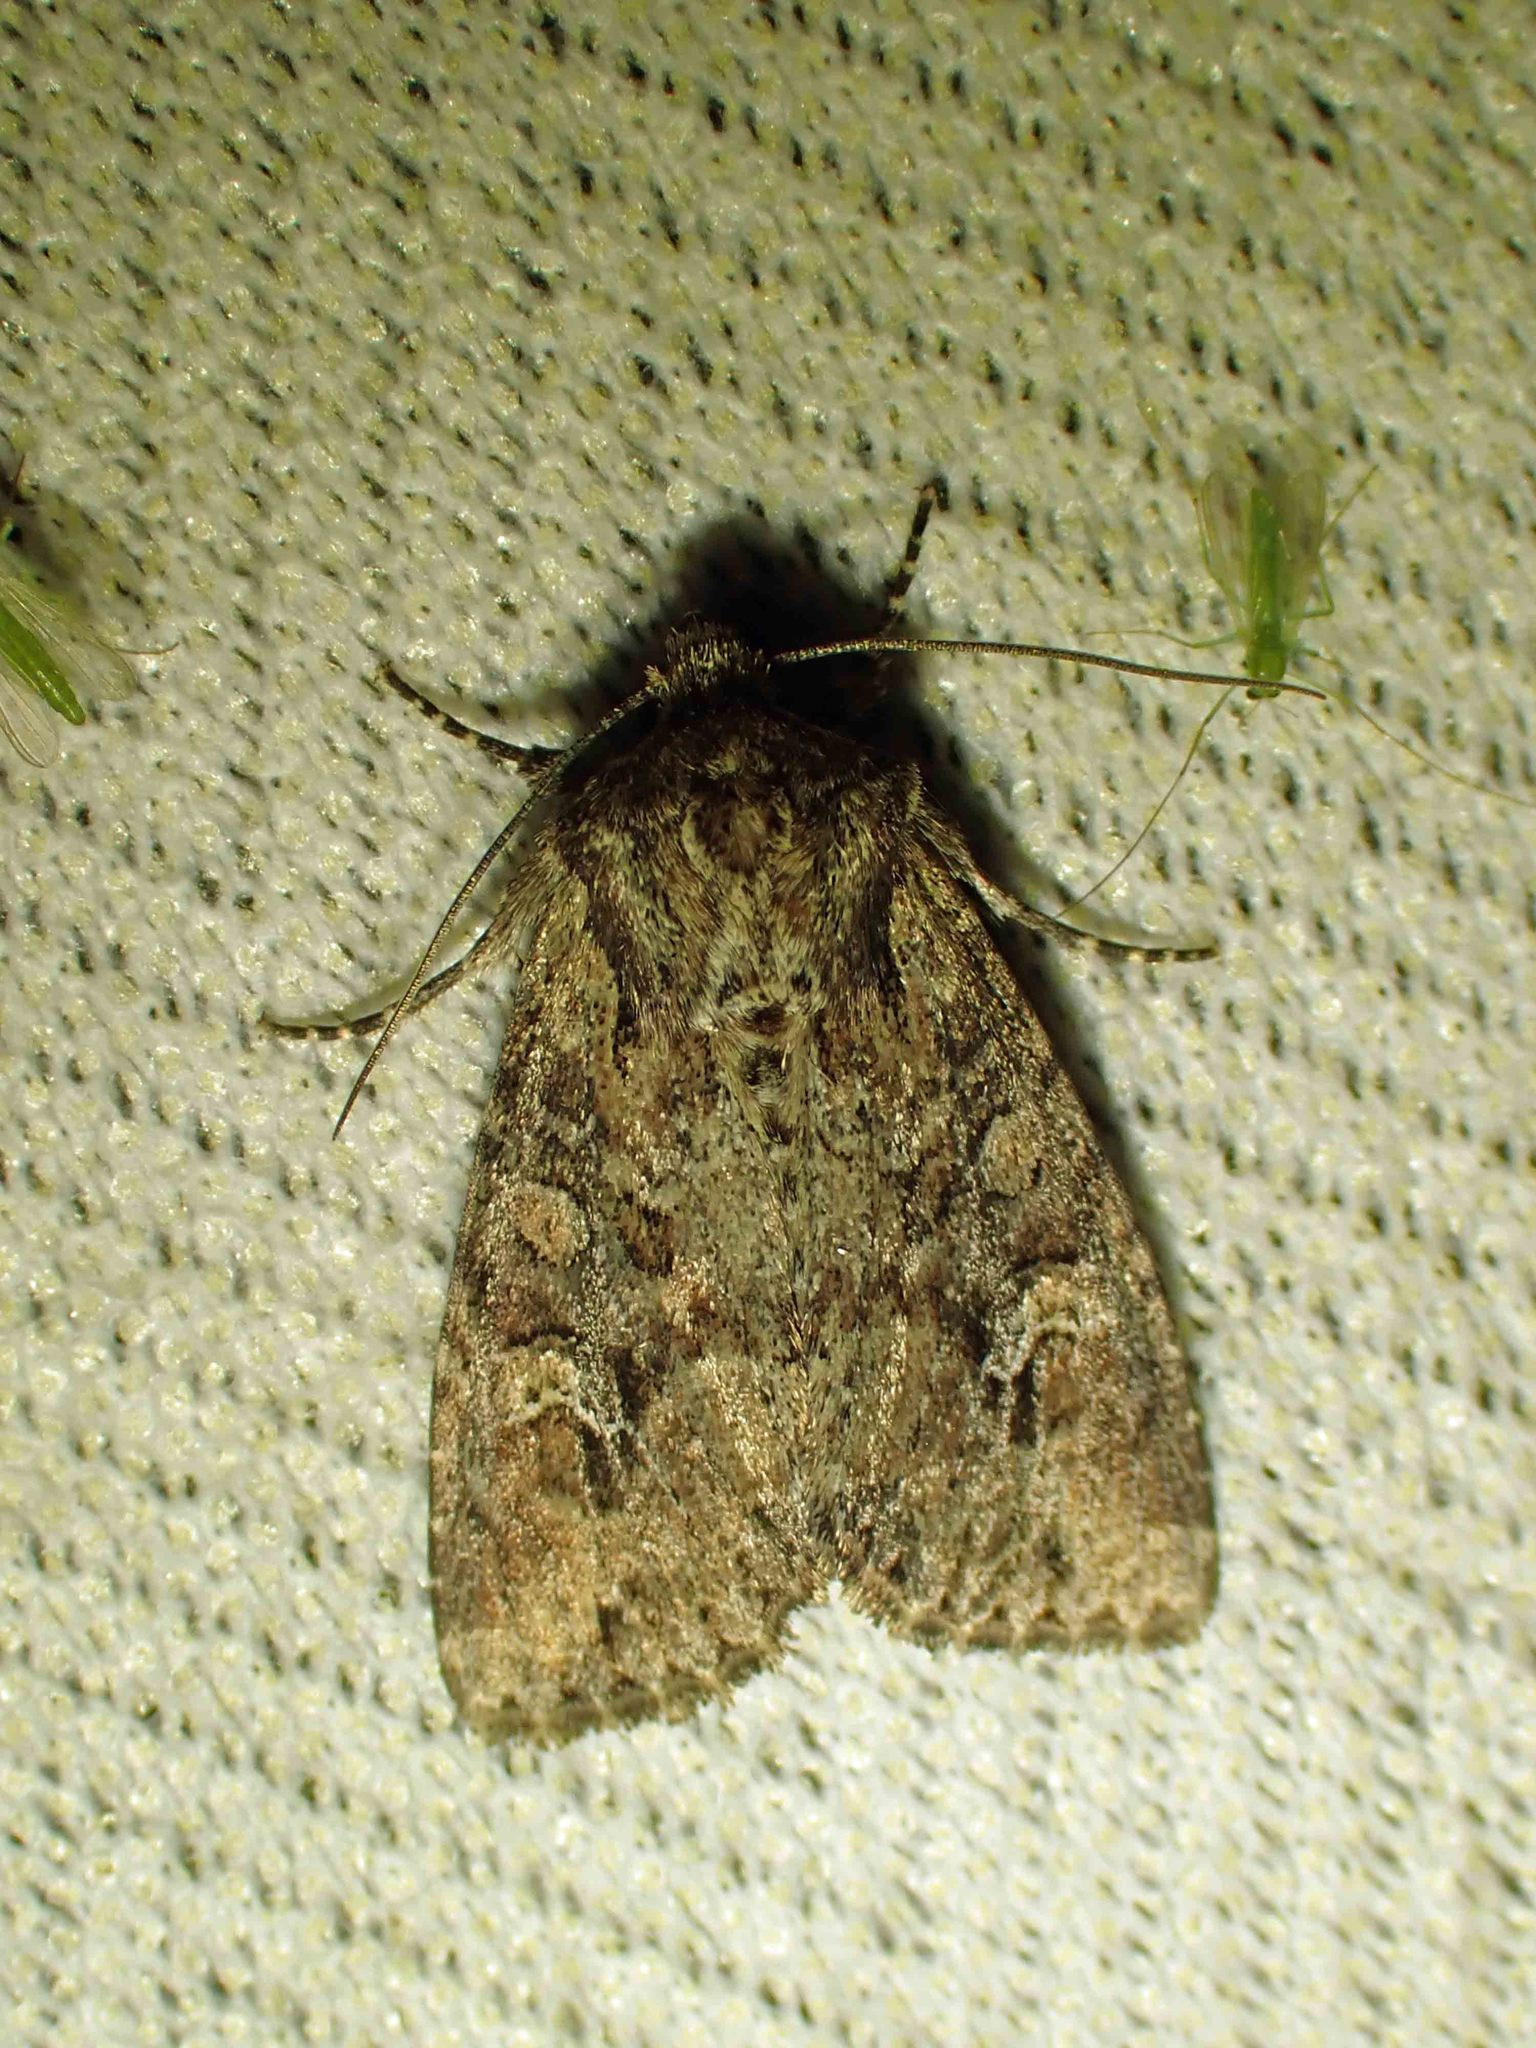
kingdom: Animalia
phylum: Arthropoda
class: Insecta
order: Lepidoptera
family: Noctuidae
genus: Apamea
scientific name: Apamea unanimis
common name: Small clouded brindle
